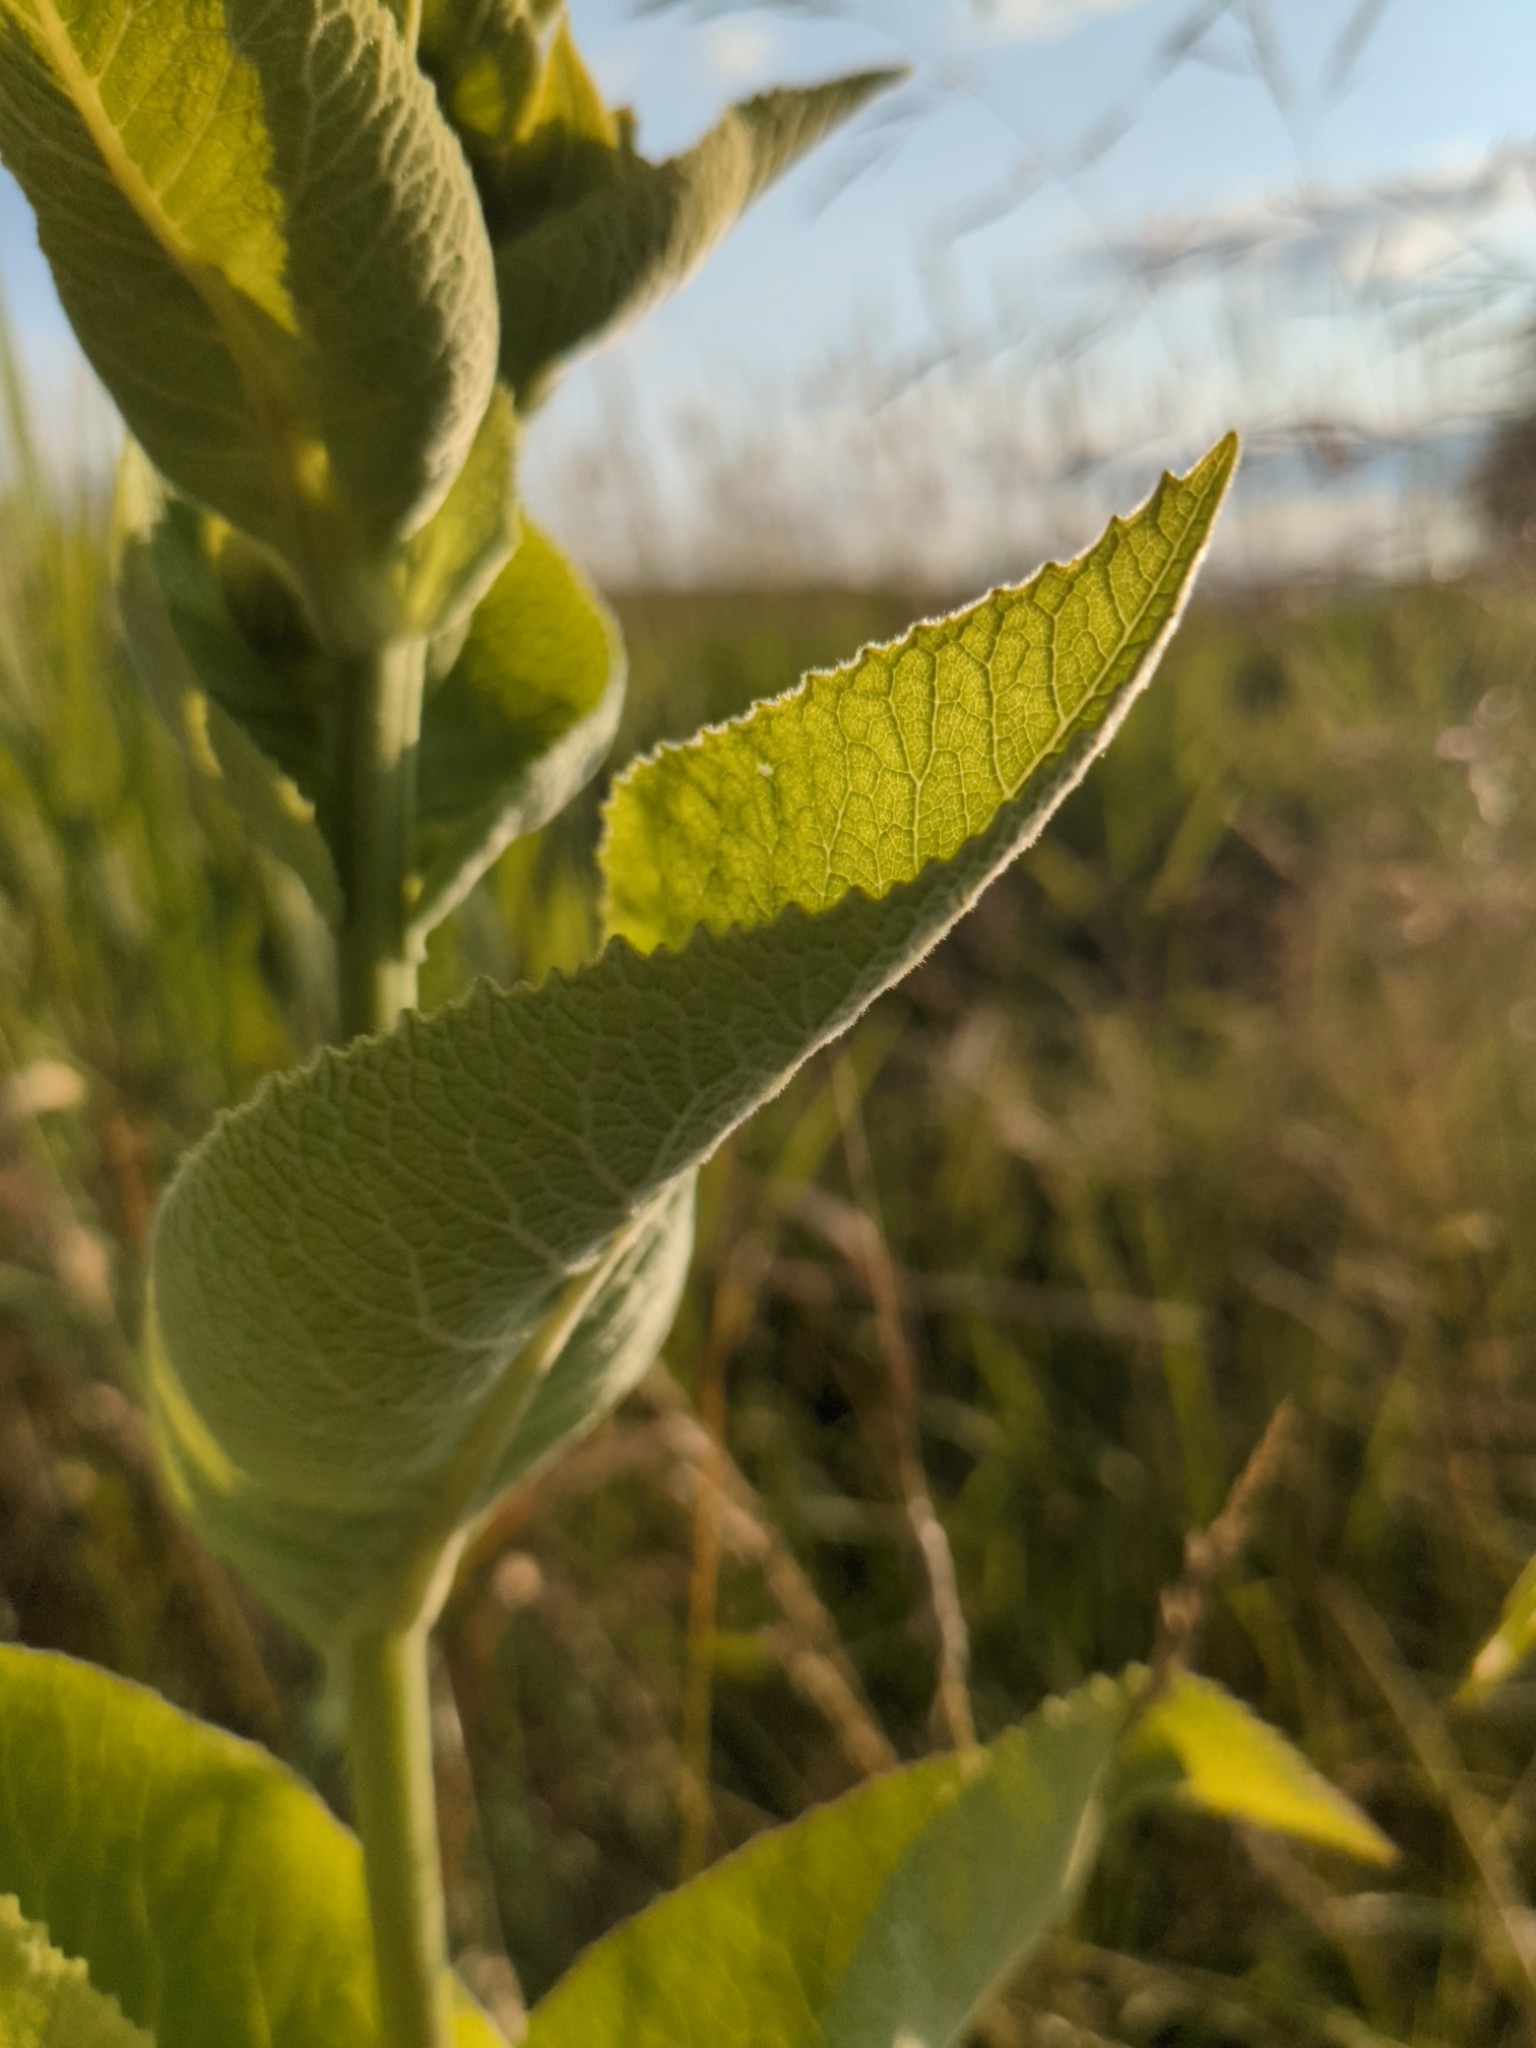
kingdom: Plantae
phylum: Tracheophyta
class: Magnoliopsida
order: Asterales
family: Asteraceae
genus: Inula
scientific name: Inula helenium
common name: Elecampane
